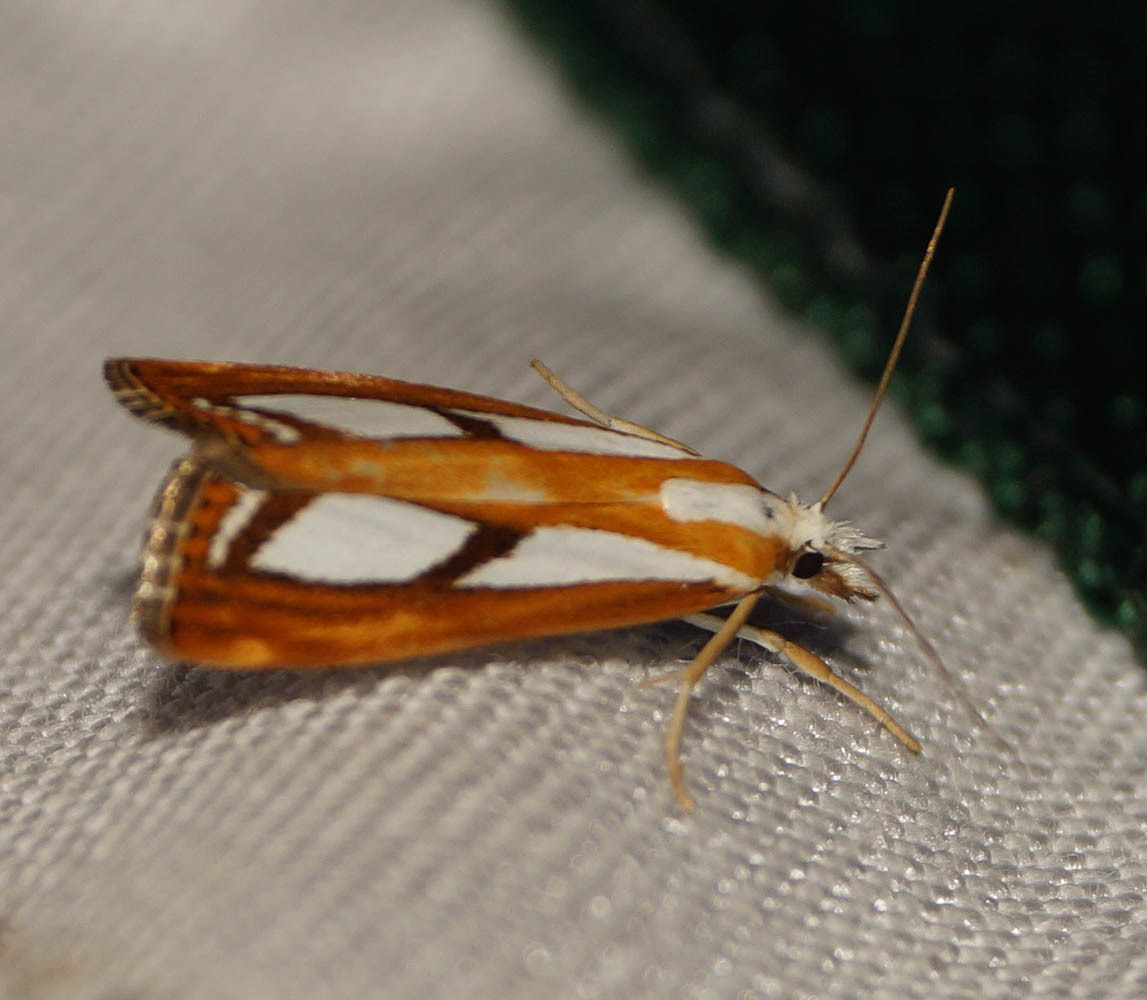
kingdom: Animalia
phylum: Arthropoda
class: Insecta
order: Lepidoptera
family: Crambidae
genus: Catoptria
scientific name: Catoptria
